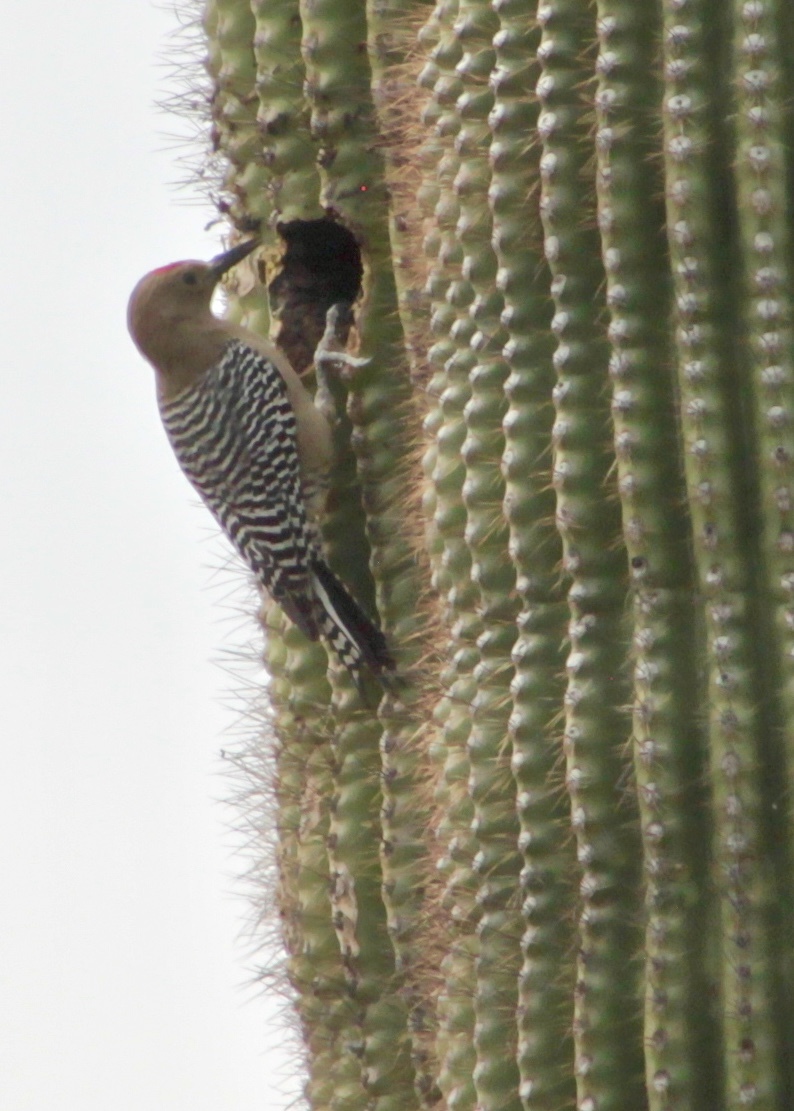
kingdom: Animalia
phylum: Chordata
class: Aves
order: Piciformes
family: Picidae
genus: Melanerpes
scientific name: Melanerpes uropygialis
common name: Gila woodpecker
